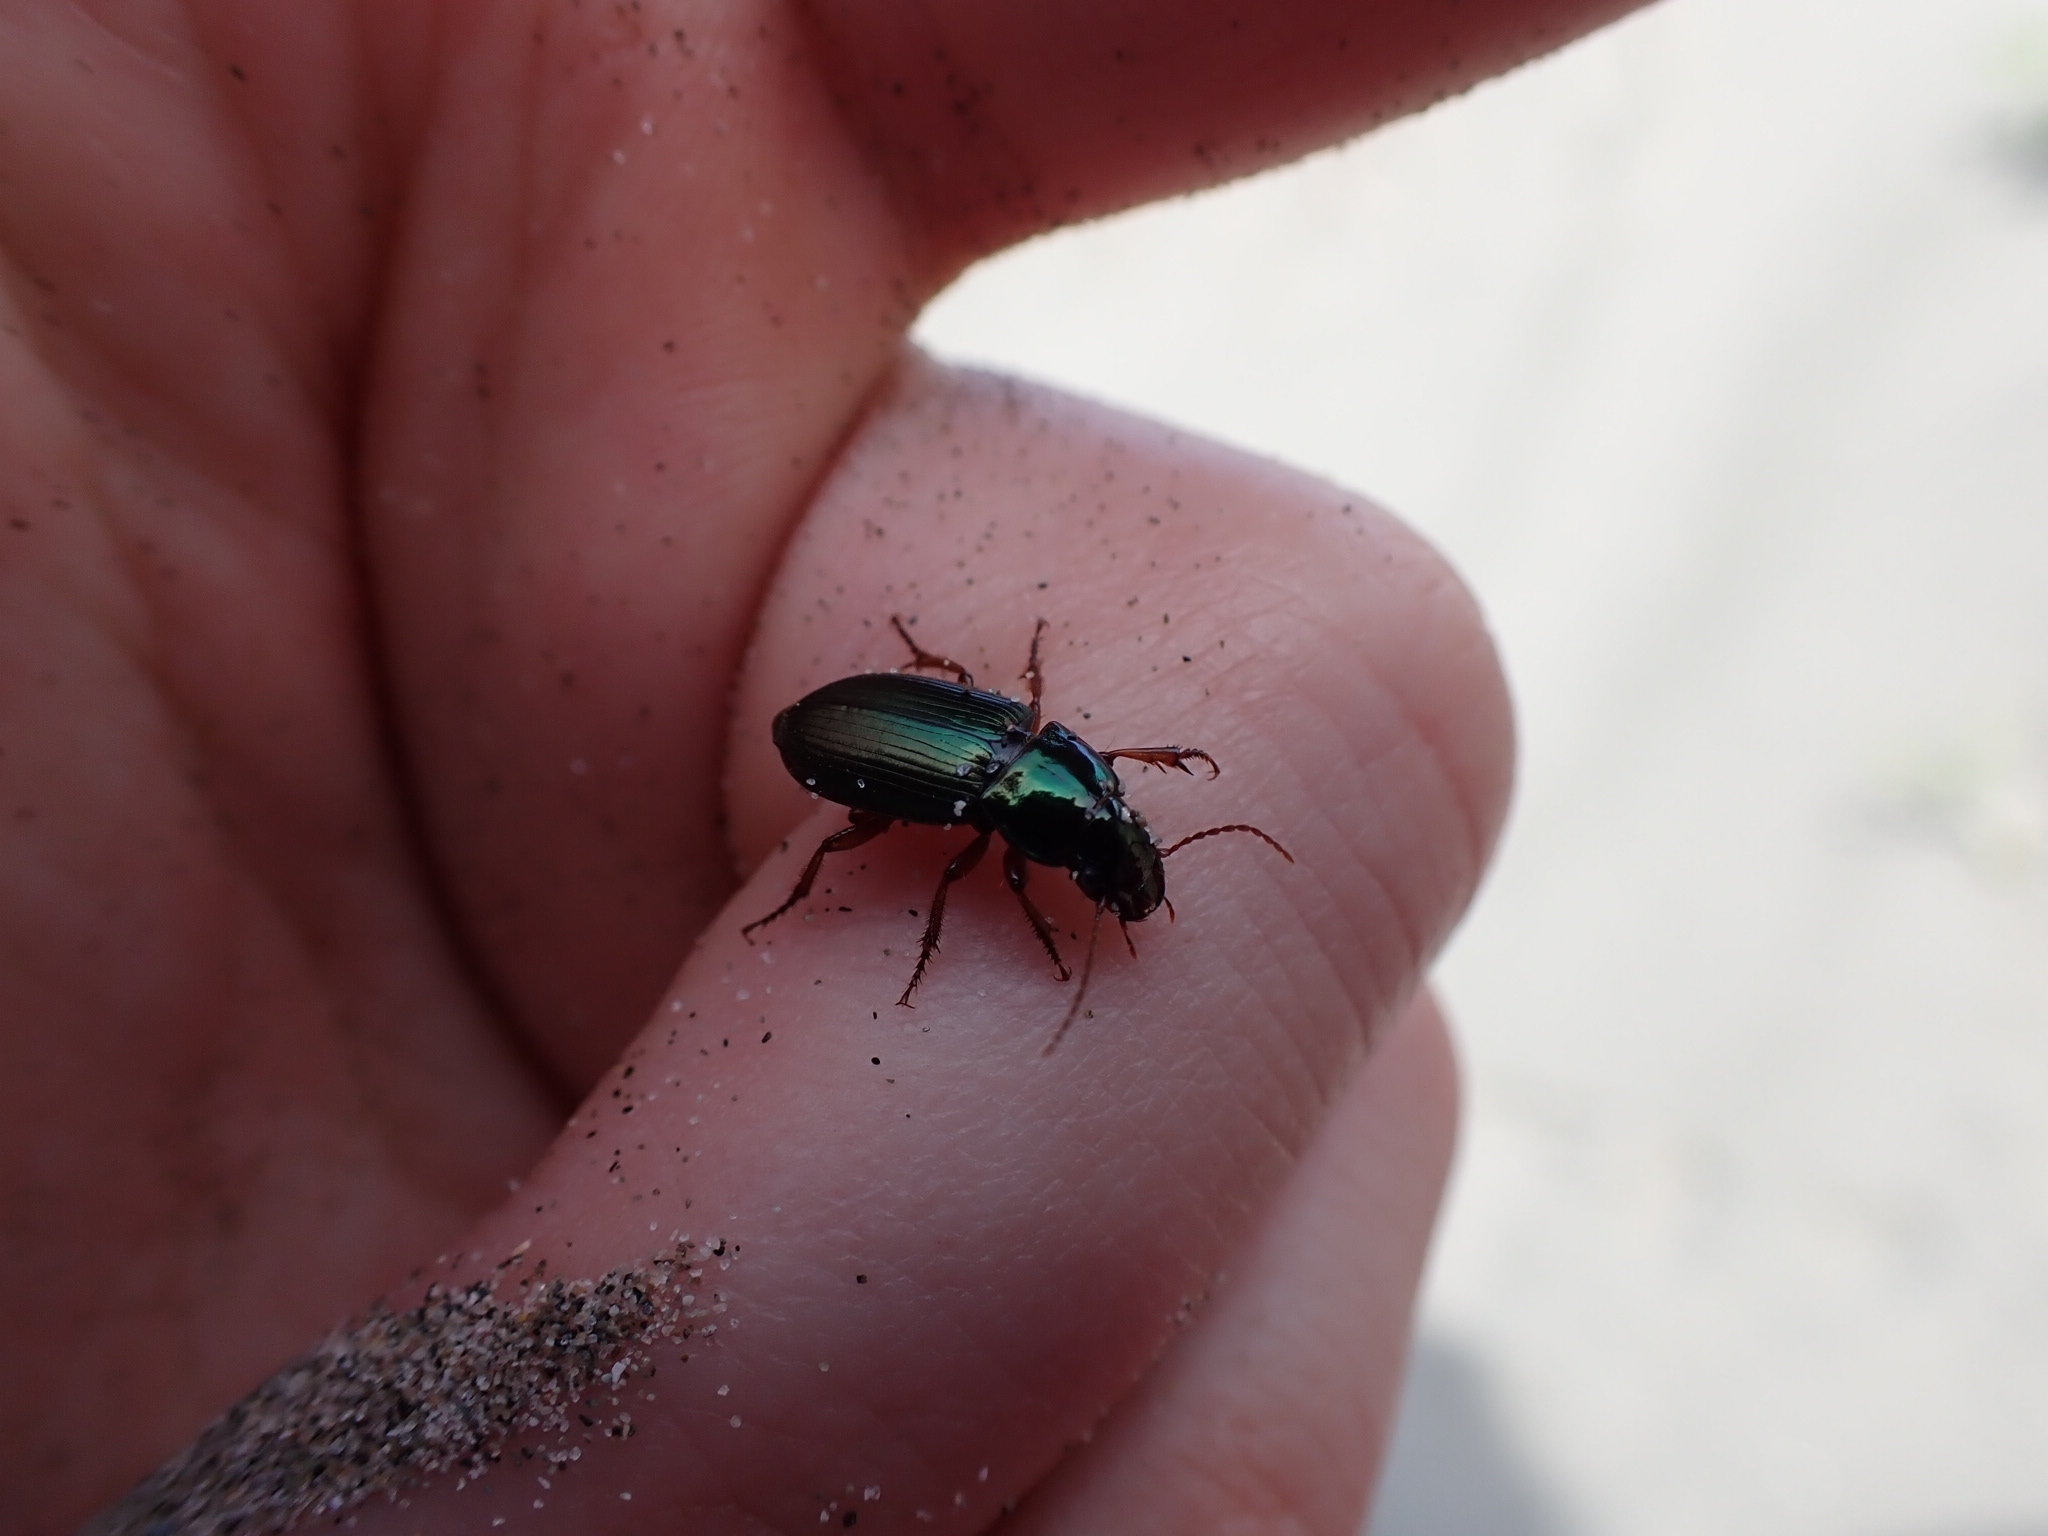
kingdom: Animalia
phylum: Arthropoda
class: Insecta
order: Coleoptera
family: Carabidae
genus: Harpalus
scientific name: Harpalus affinis
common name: Polychrome harp ground beetle
